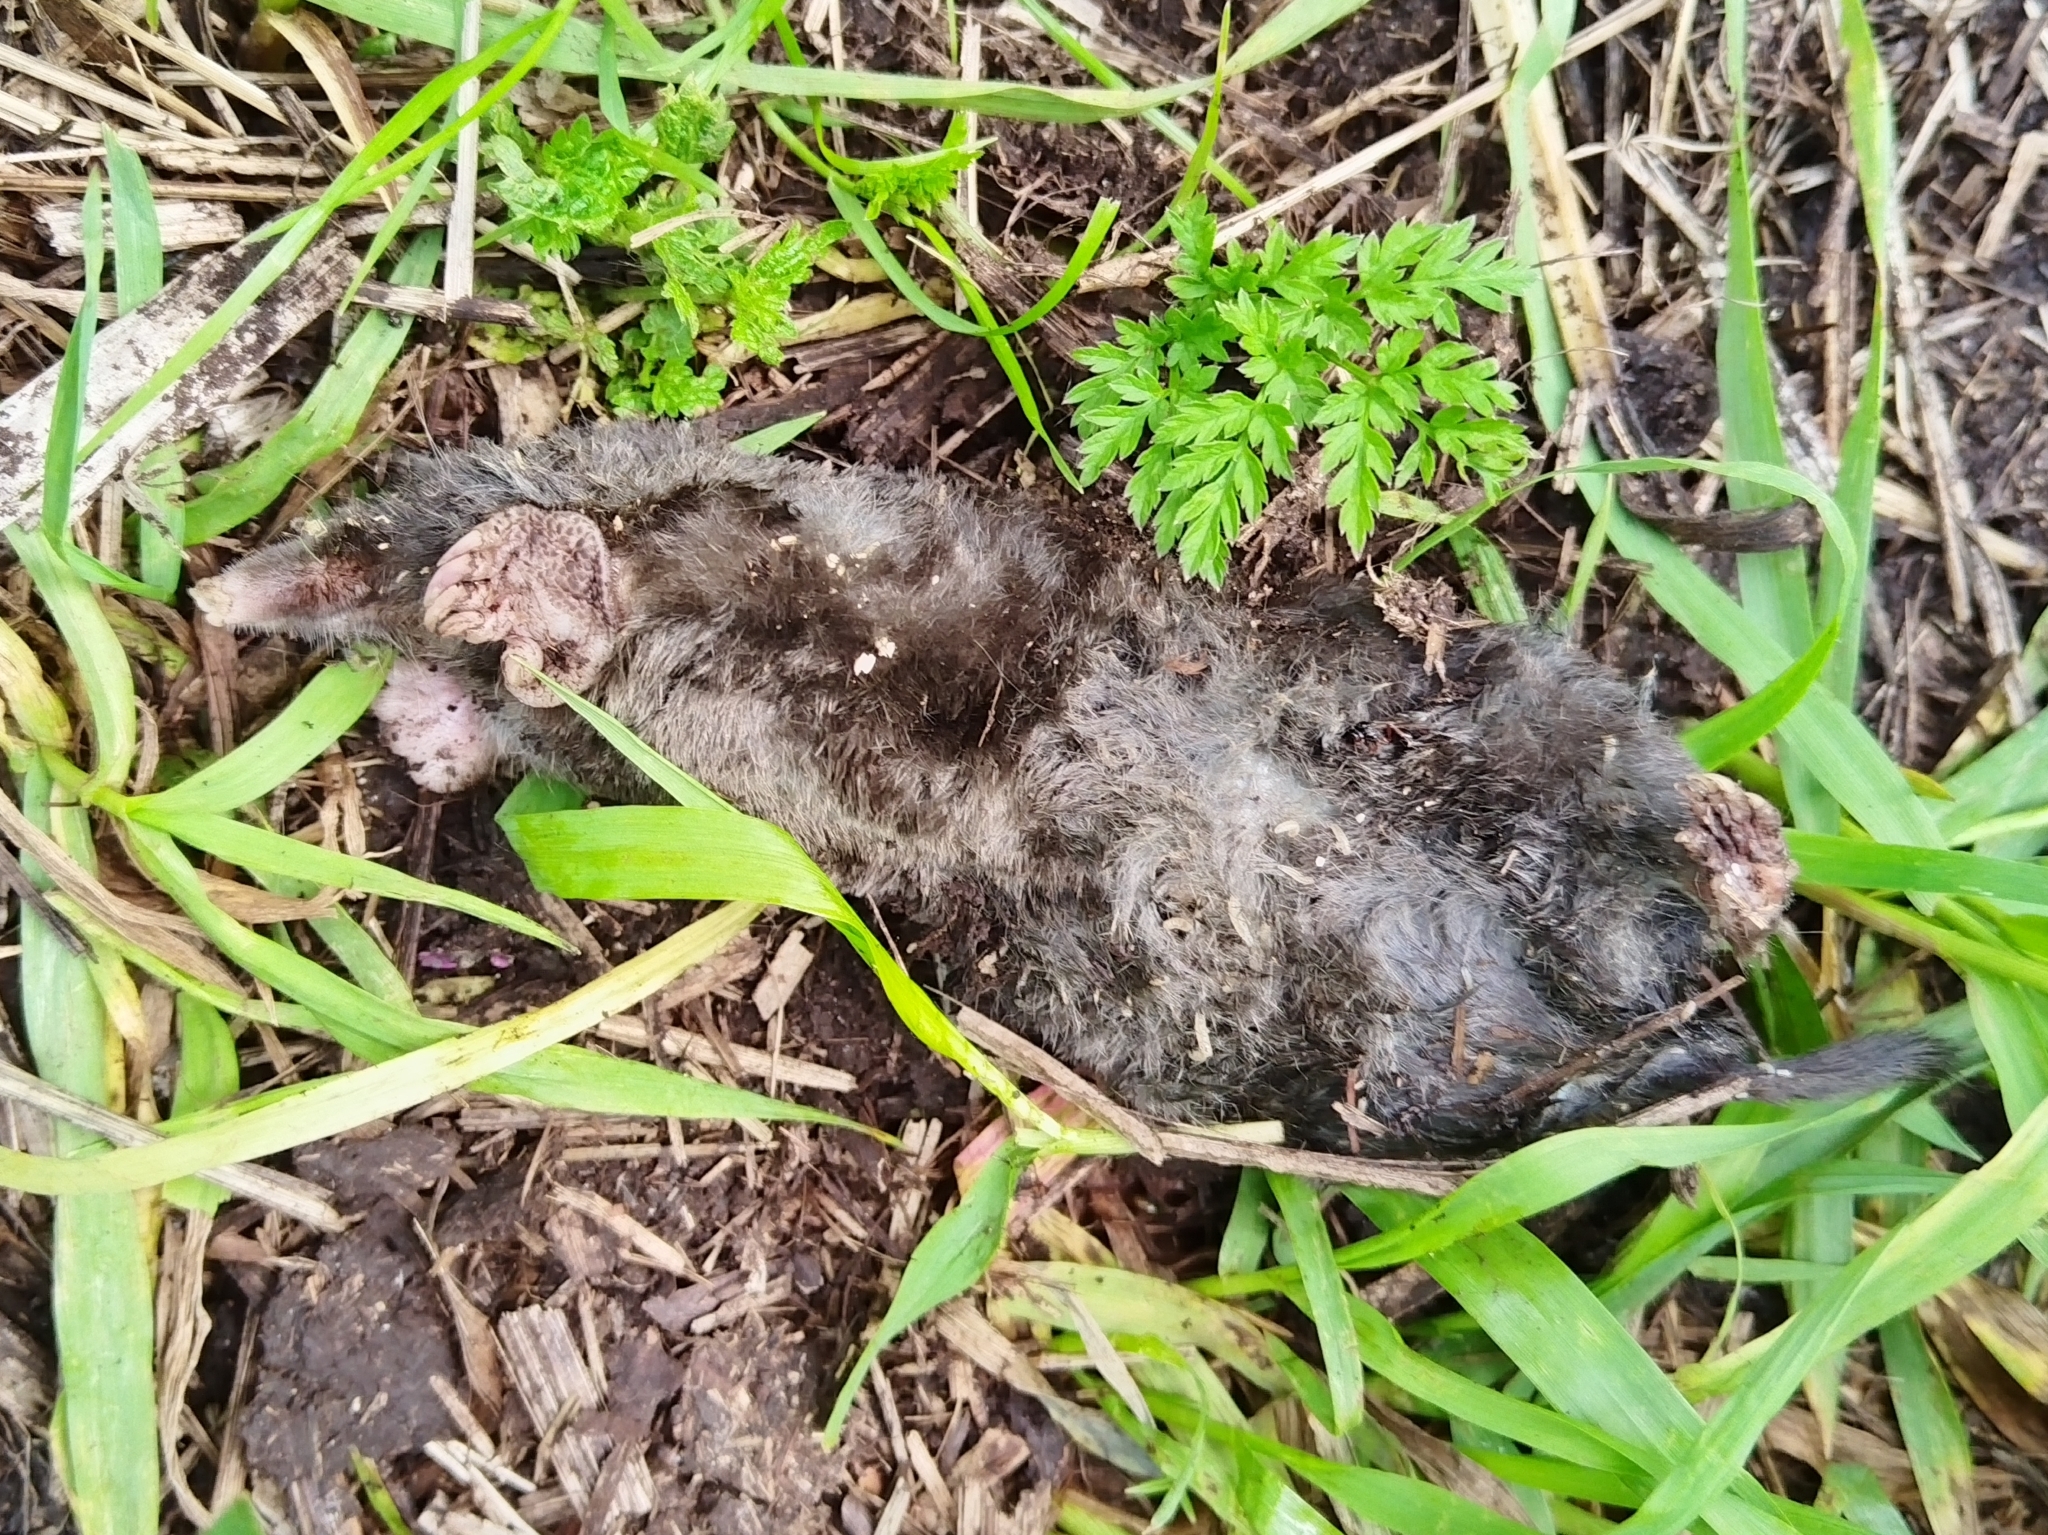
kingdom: Animalia
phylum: Chordata
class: Mammalia
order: Soricomorpha
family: Talpidae
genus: Talpa
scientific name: Talpa europaea
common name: European mole
